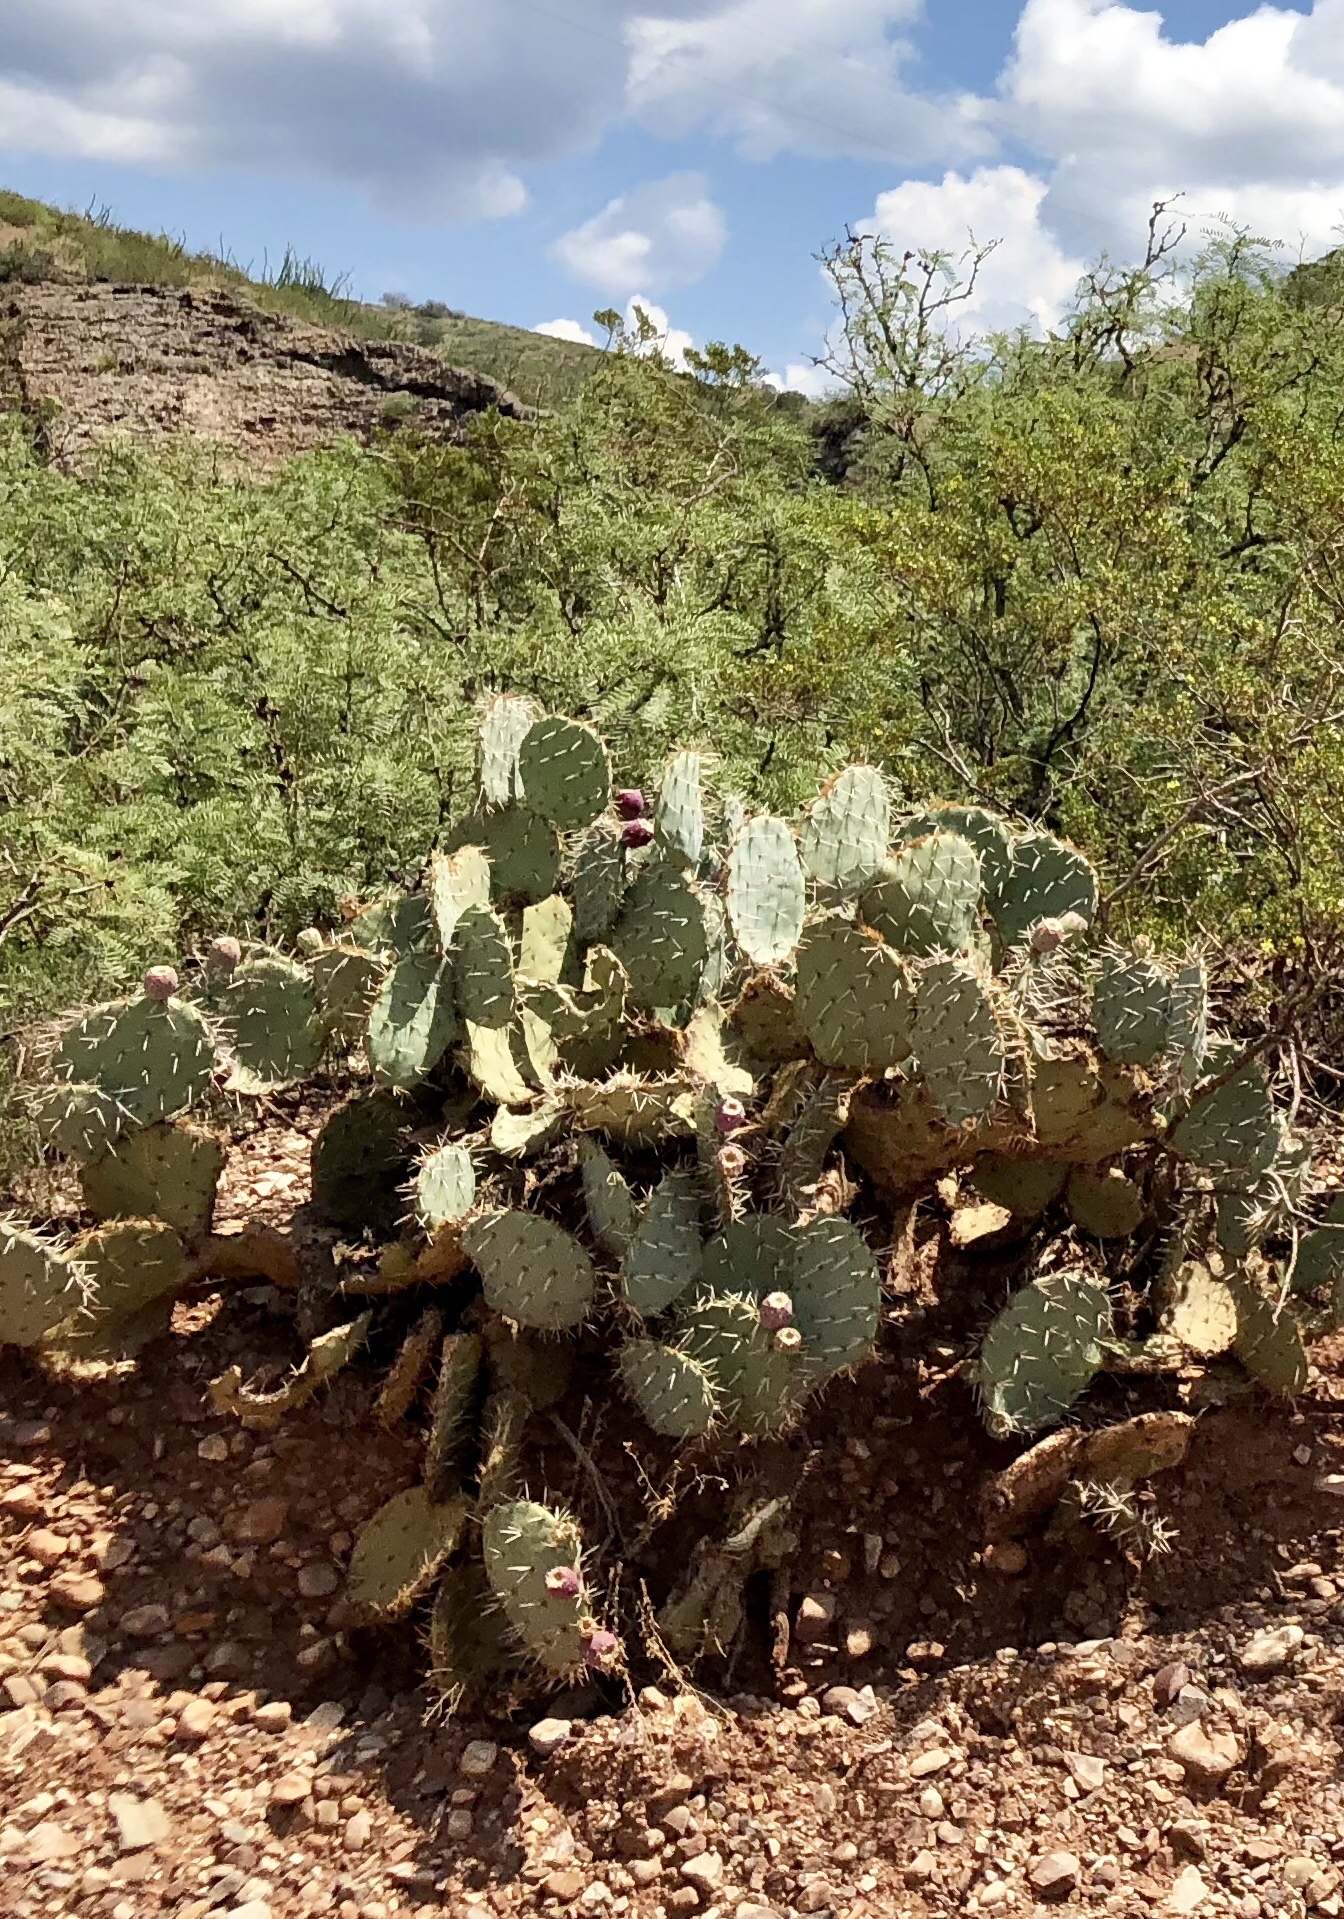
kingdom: Plantae
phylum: Tracheophyta
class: Magnoliopsida
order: Caryophyllales
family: Cactaceae
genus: Opuntia
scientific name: Opuntia orbiculata
